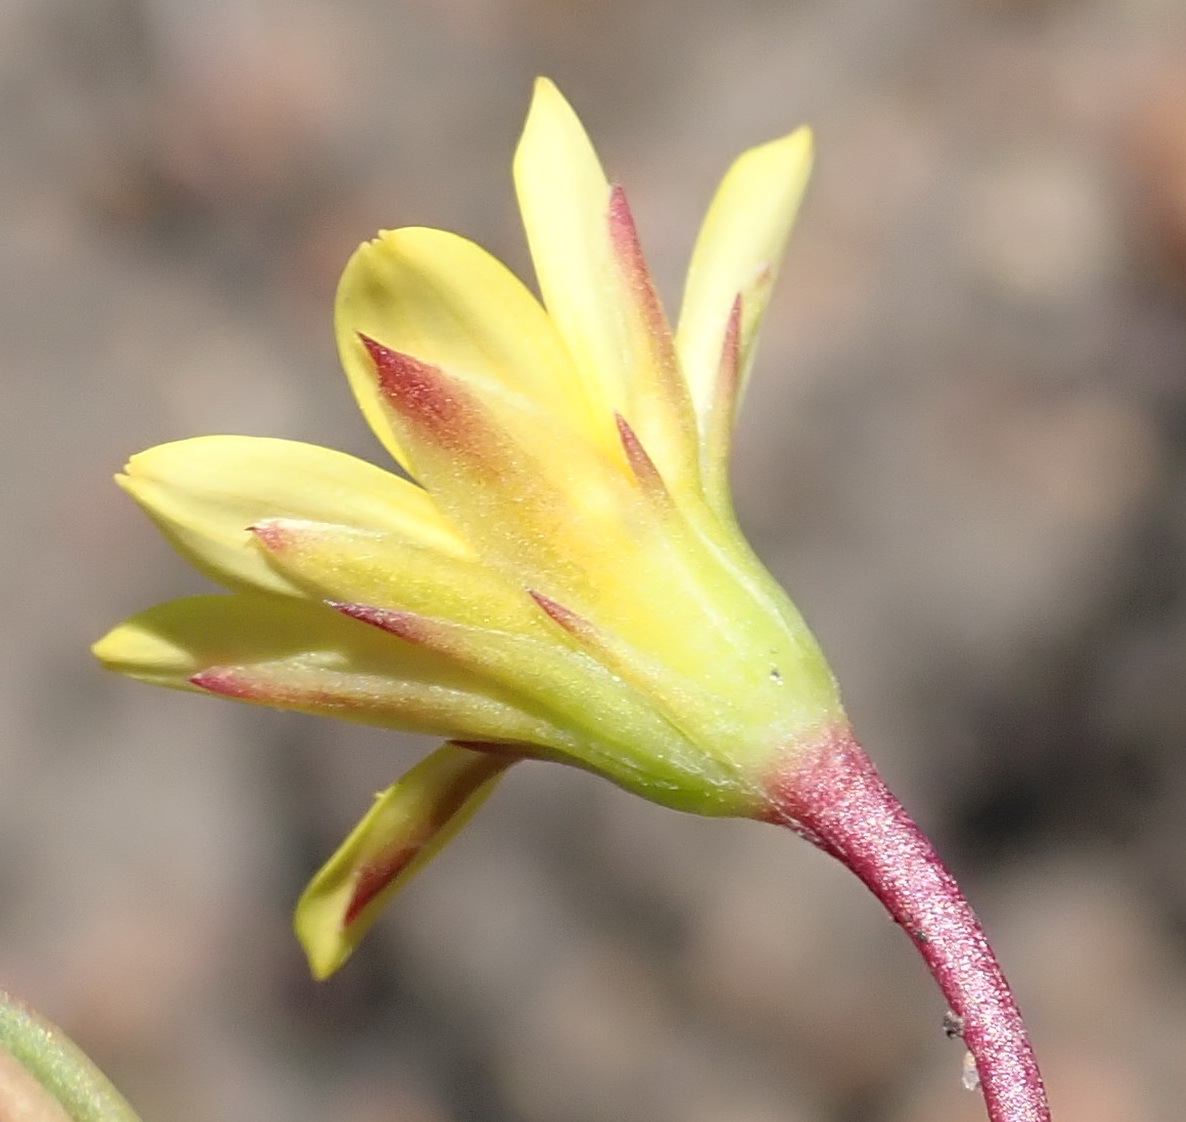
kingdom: Plantae
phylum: Tracheophyta
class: Magnoliopsida
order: Asterales
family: Asteraceae
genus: Osteospermum
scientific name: Osteospermum triquetrum
